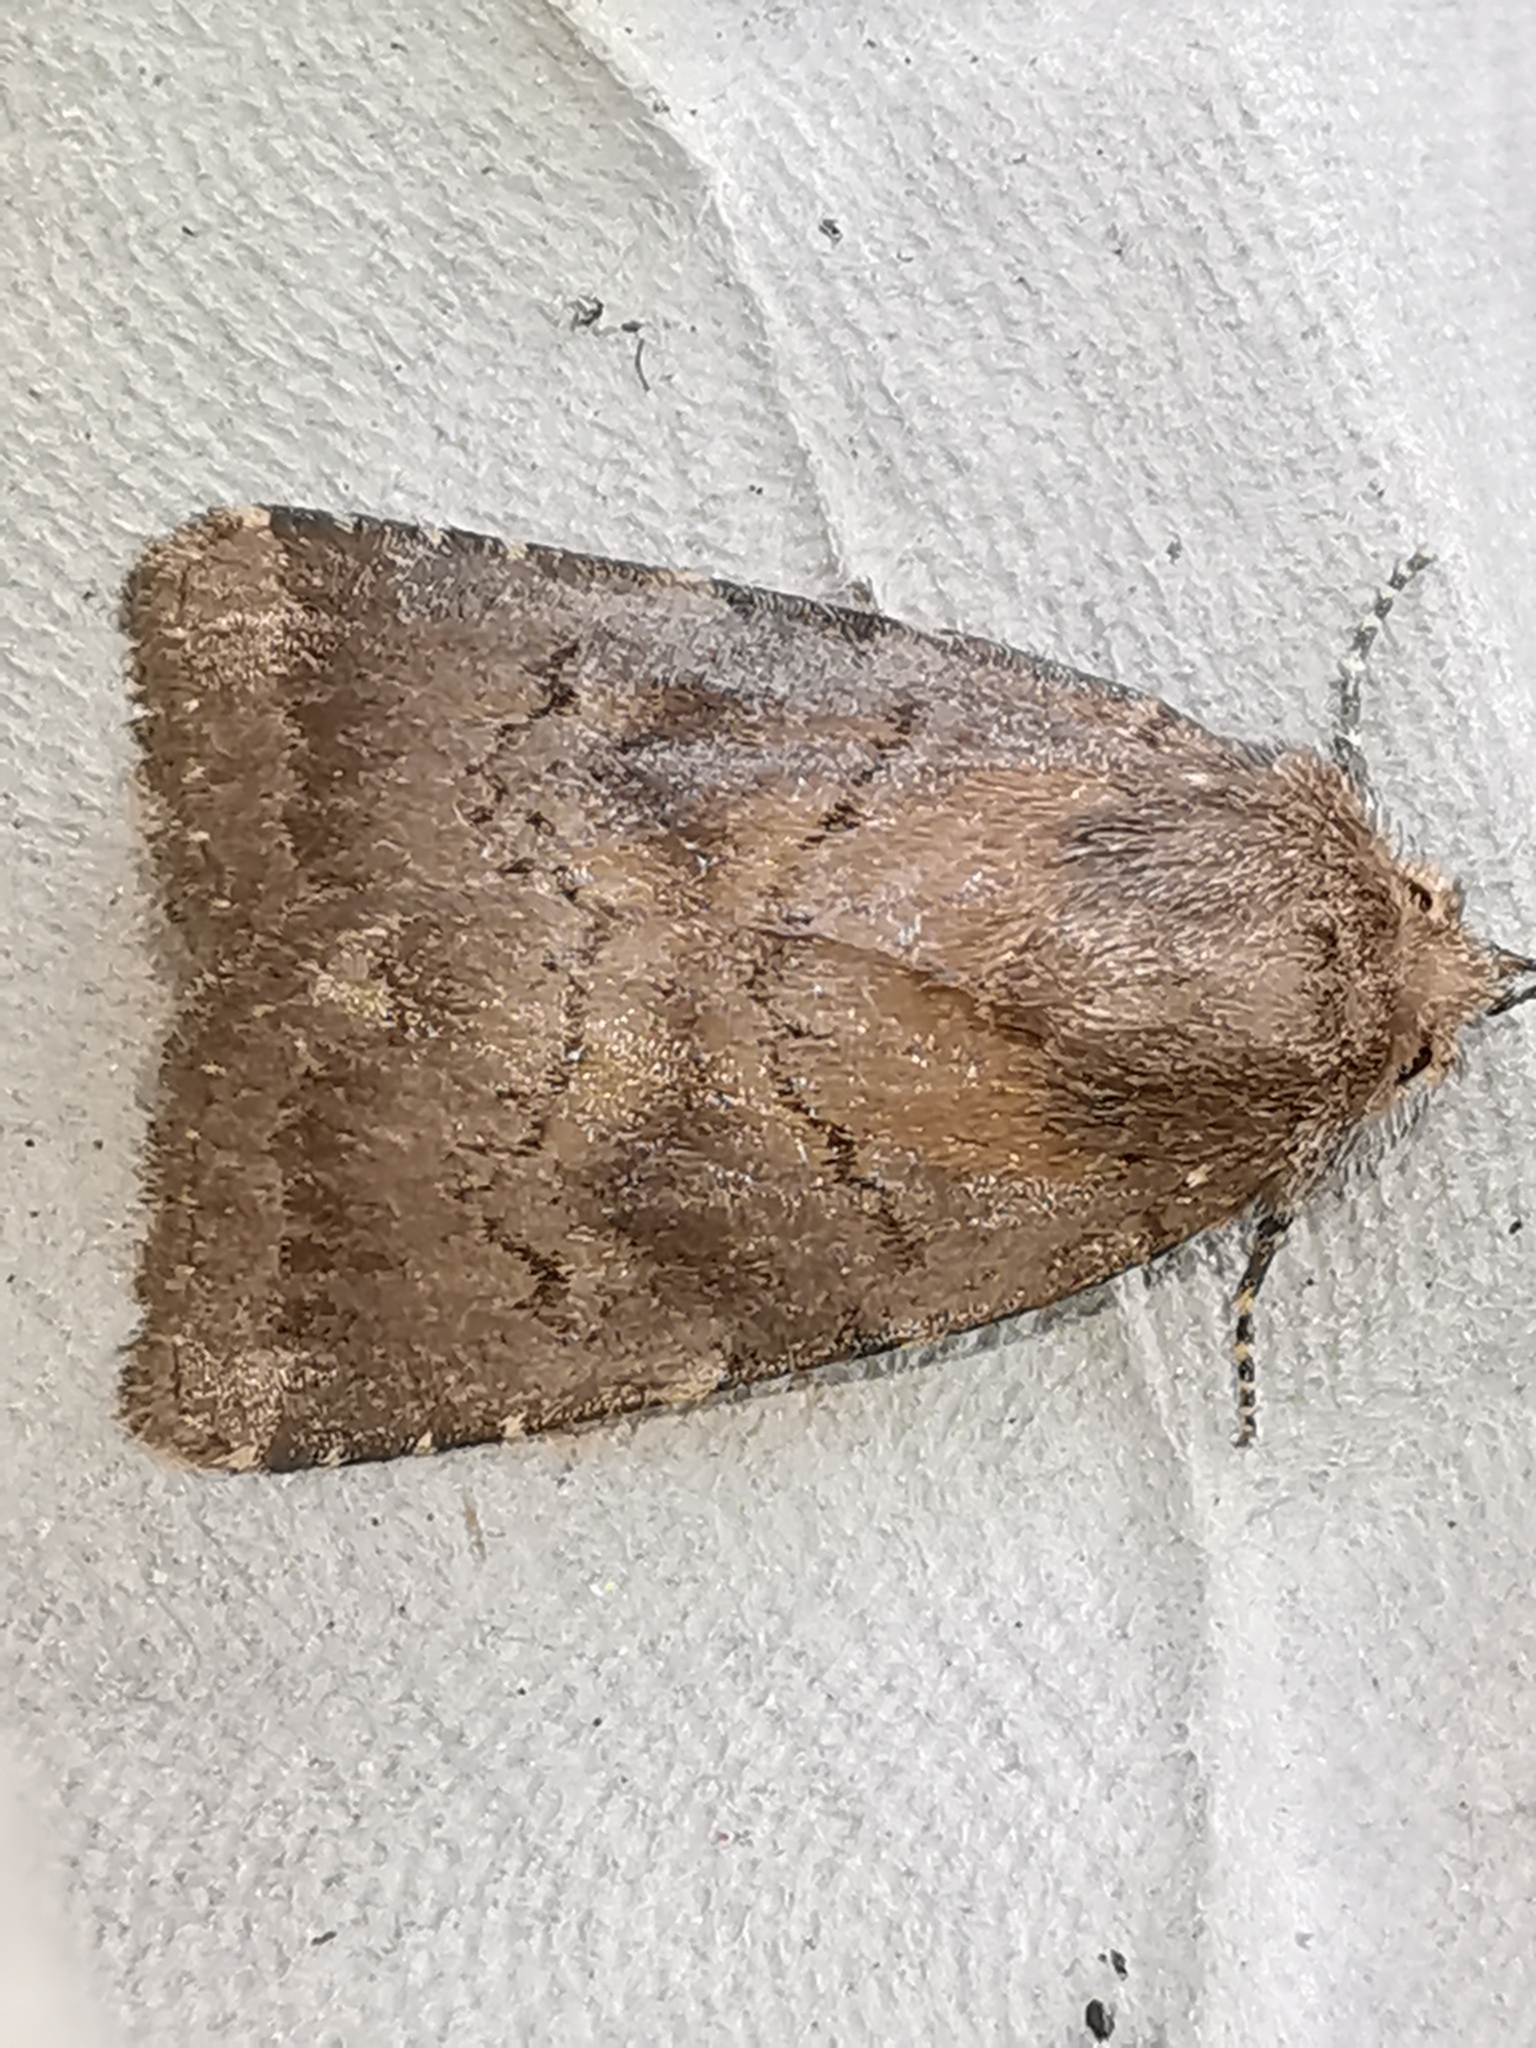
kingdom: Animalia
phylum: Arthropoda
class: Insecta
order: Lepidoptera
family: Noctuidae
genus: Charanyca
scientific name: Charanyca ferruginea
